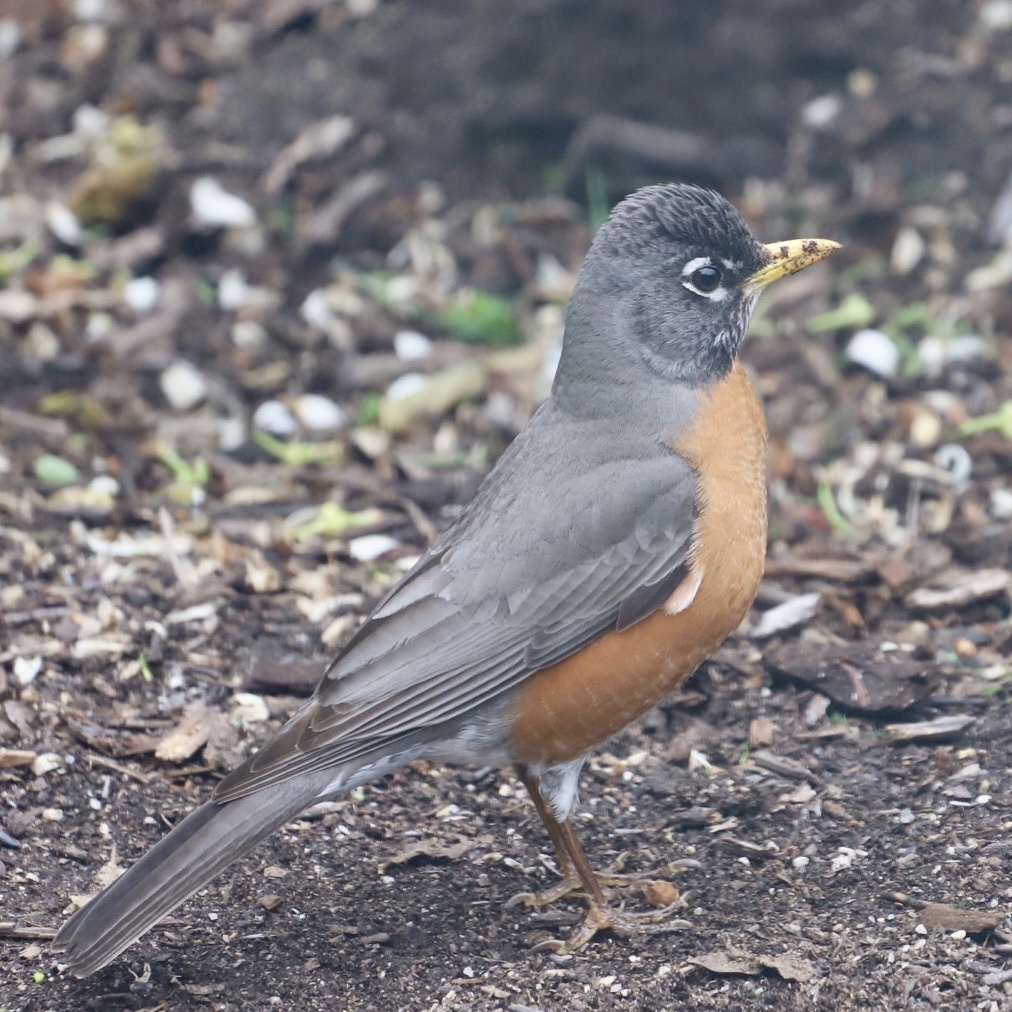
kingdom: Animalia
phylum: Chordata
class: Aves
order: Passeriformes
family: Turdidae
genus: Turdus
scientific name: Turdus migratorius
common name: American robin
